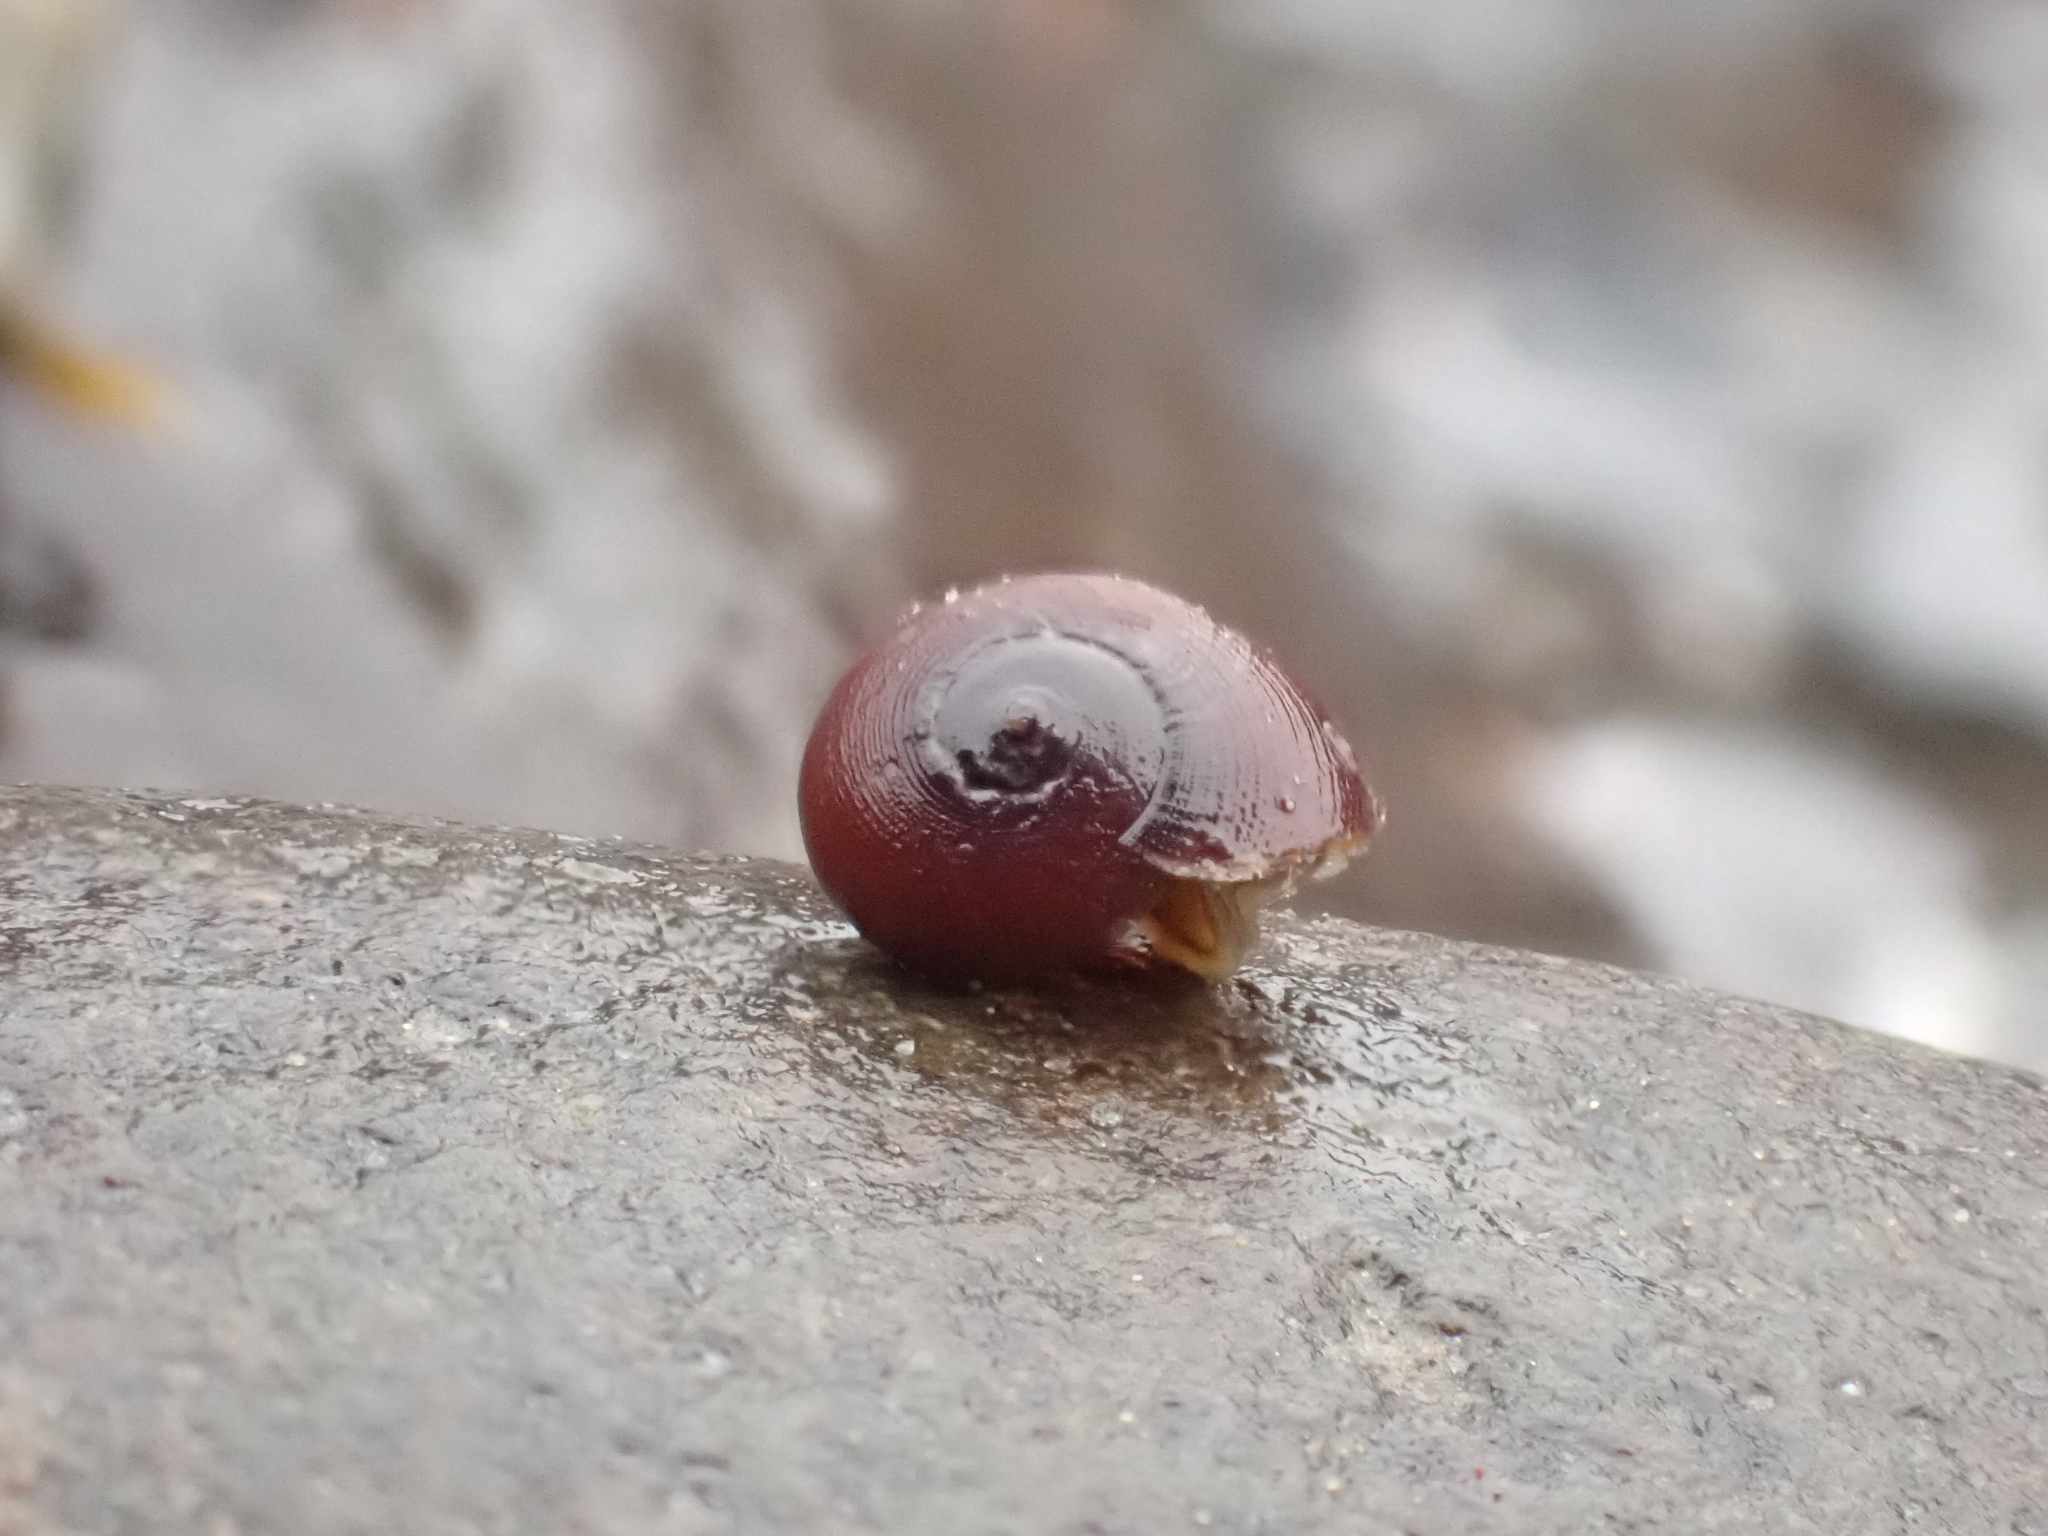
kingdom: Animalia
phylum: Mollusca
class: Gastropoda
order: Littorinimorpha
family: Littorinidae
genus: Littorina
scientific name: Littorina obtusata
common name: Flat periwinkle
